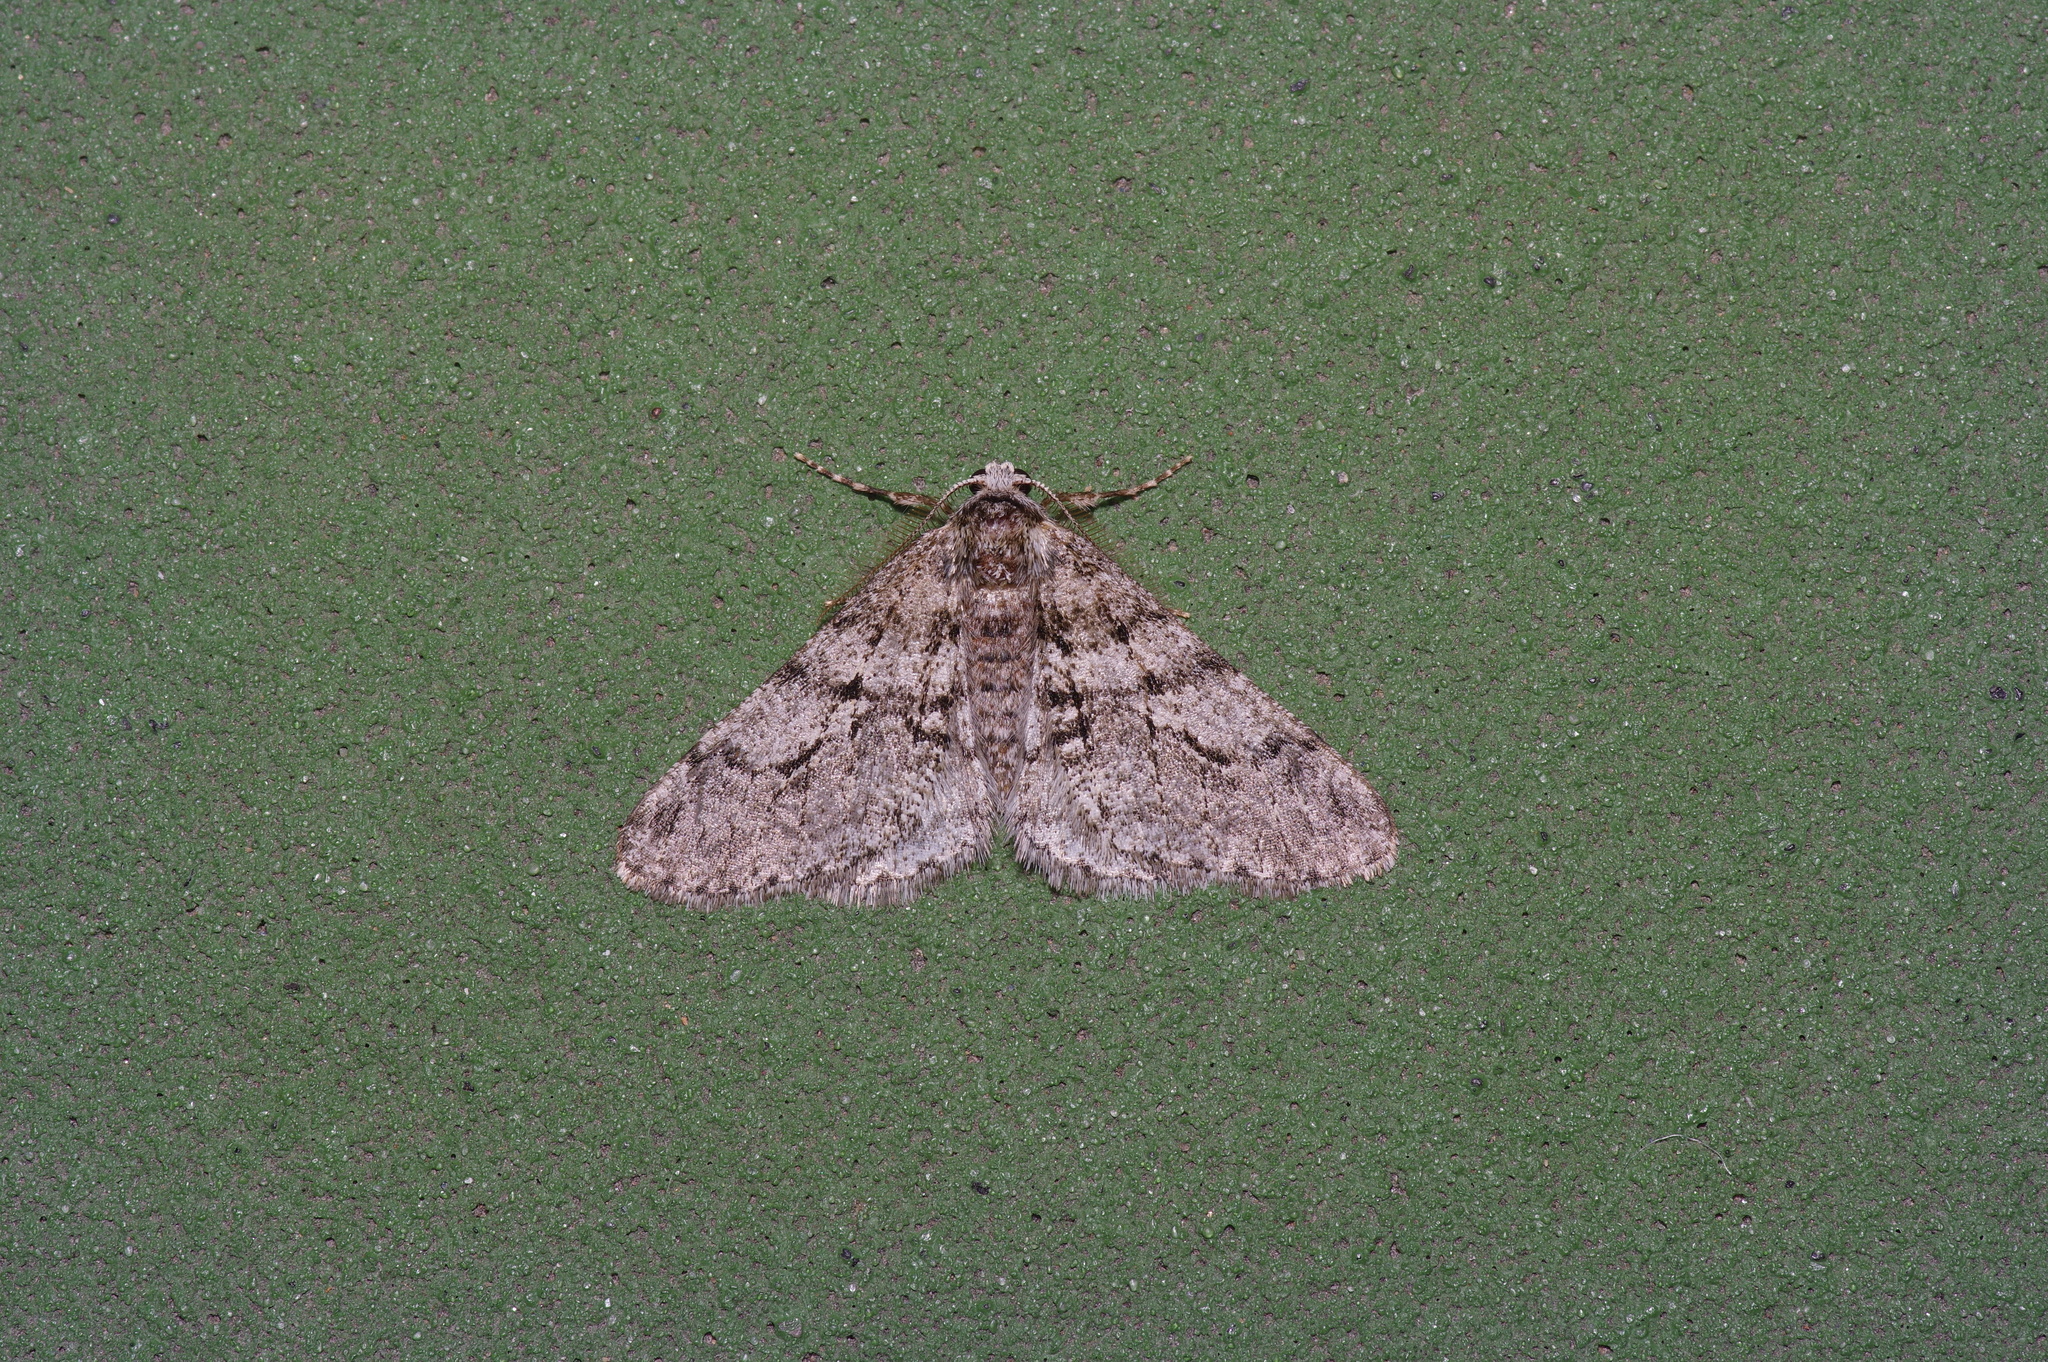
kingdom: Animalia
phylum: Arthropoda
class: Insecta
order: Lepidoptera
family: Geometridae
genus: Phigalia
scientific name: Phigalia titea
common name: Spiny looper
